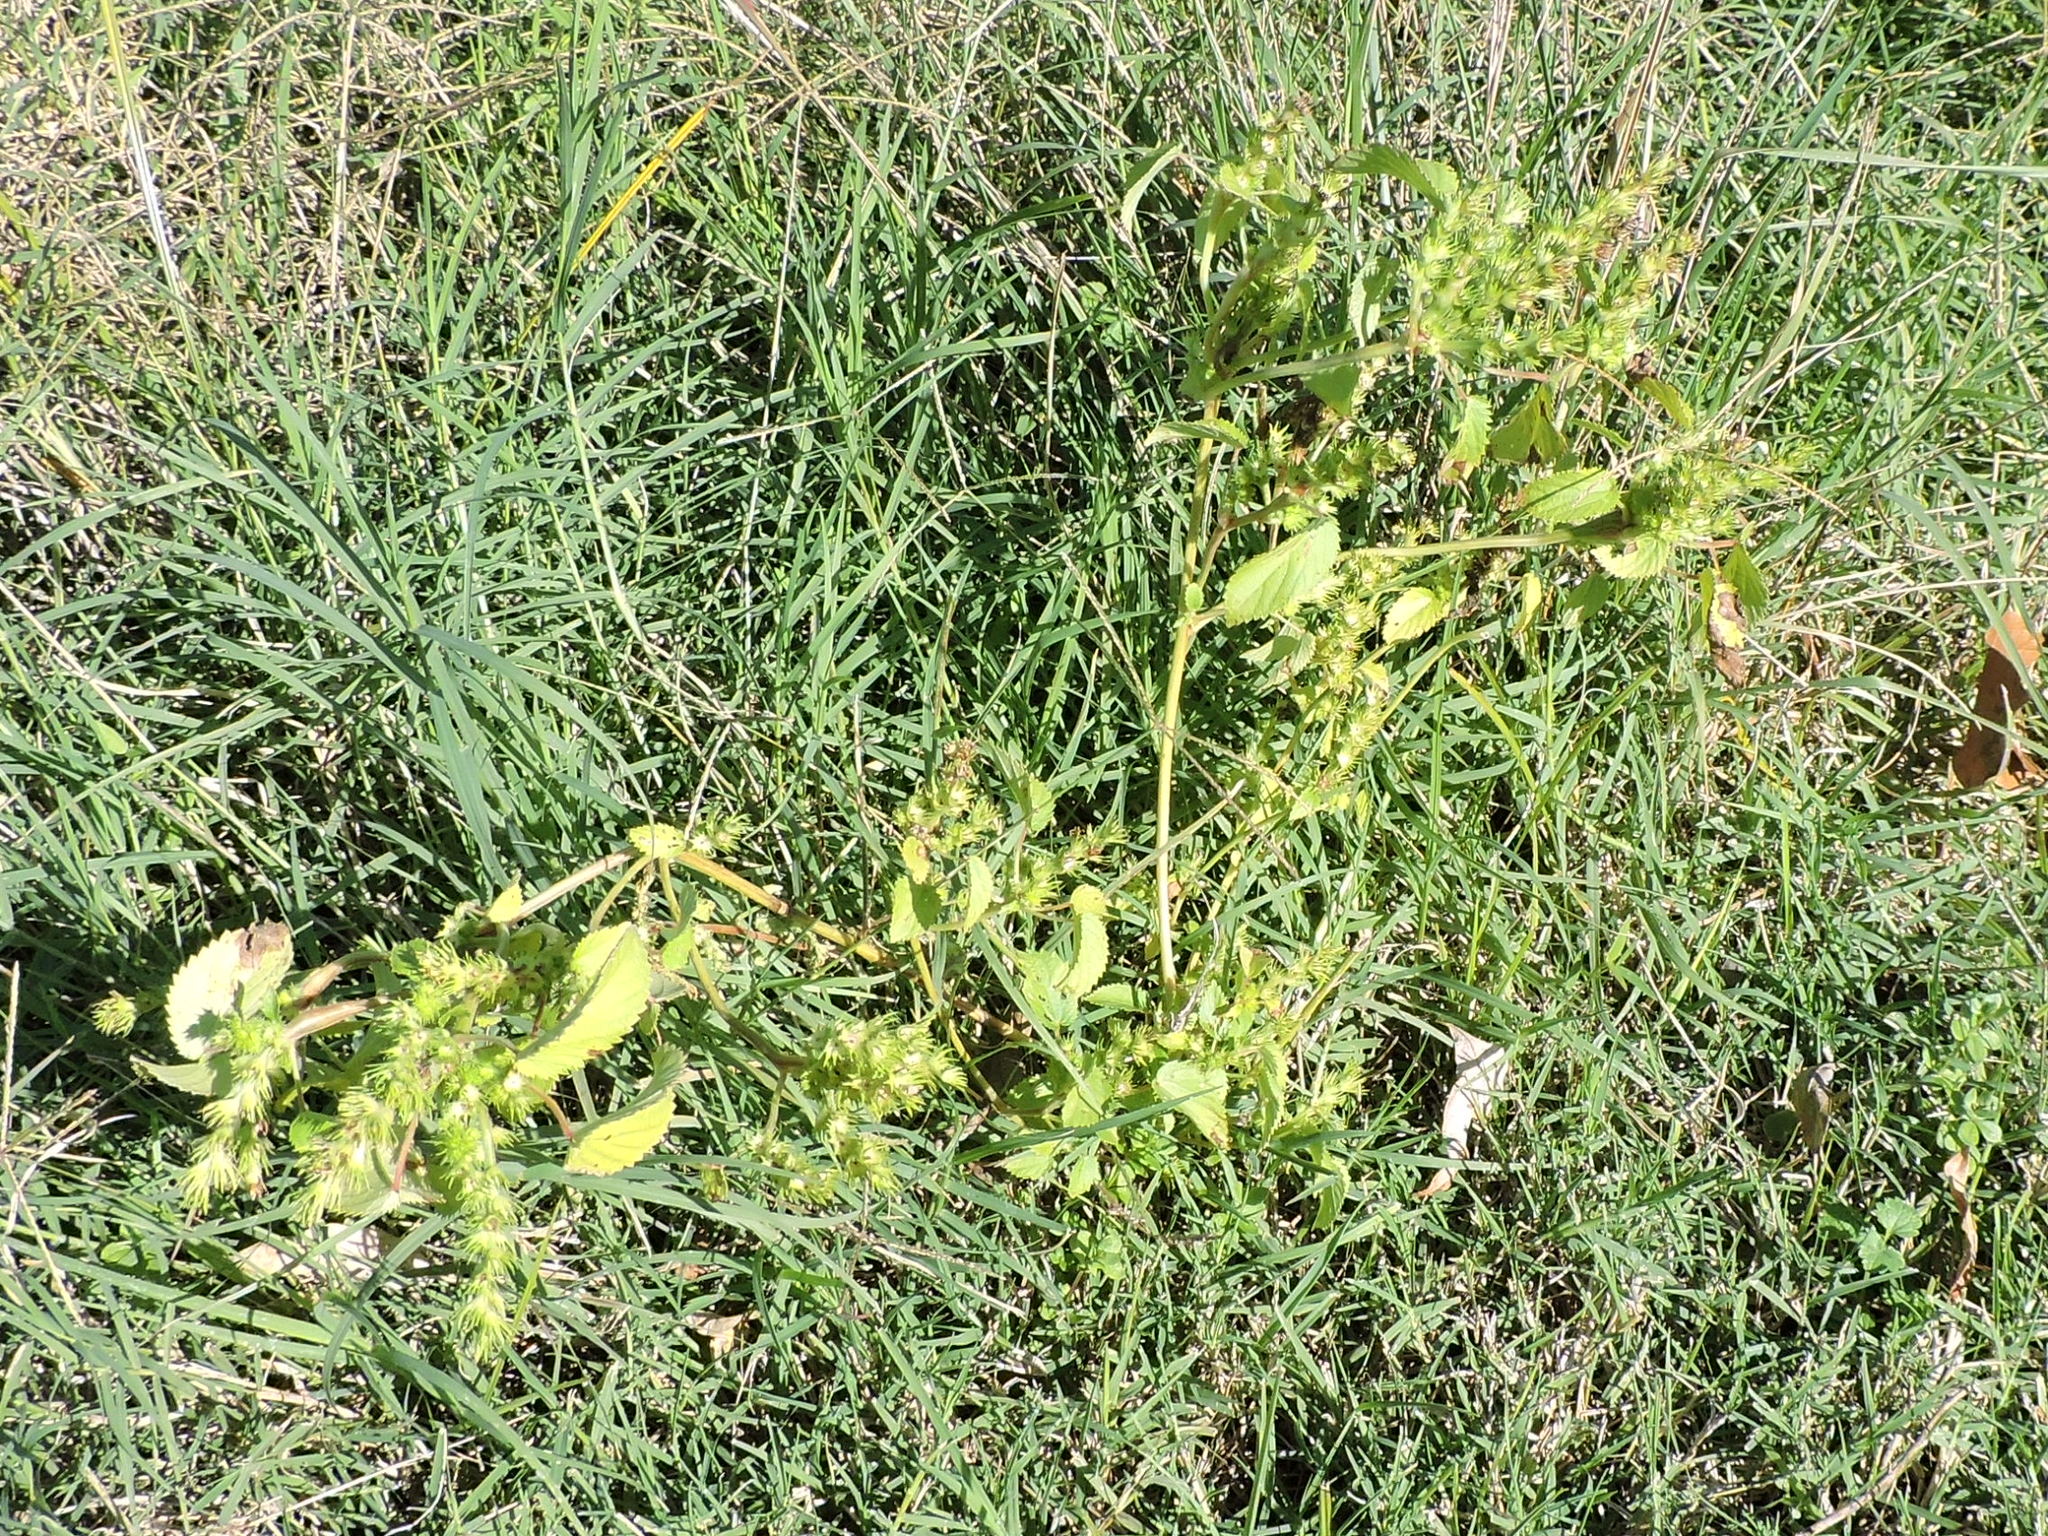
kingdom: Plantae
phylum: Tracheophyta
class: Magnoliopsida
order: Malpighiales
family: Euphorbiaceae
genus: Acalypha
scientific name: Acalypha ostryifolia
